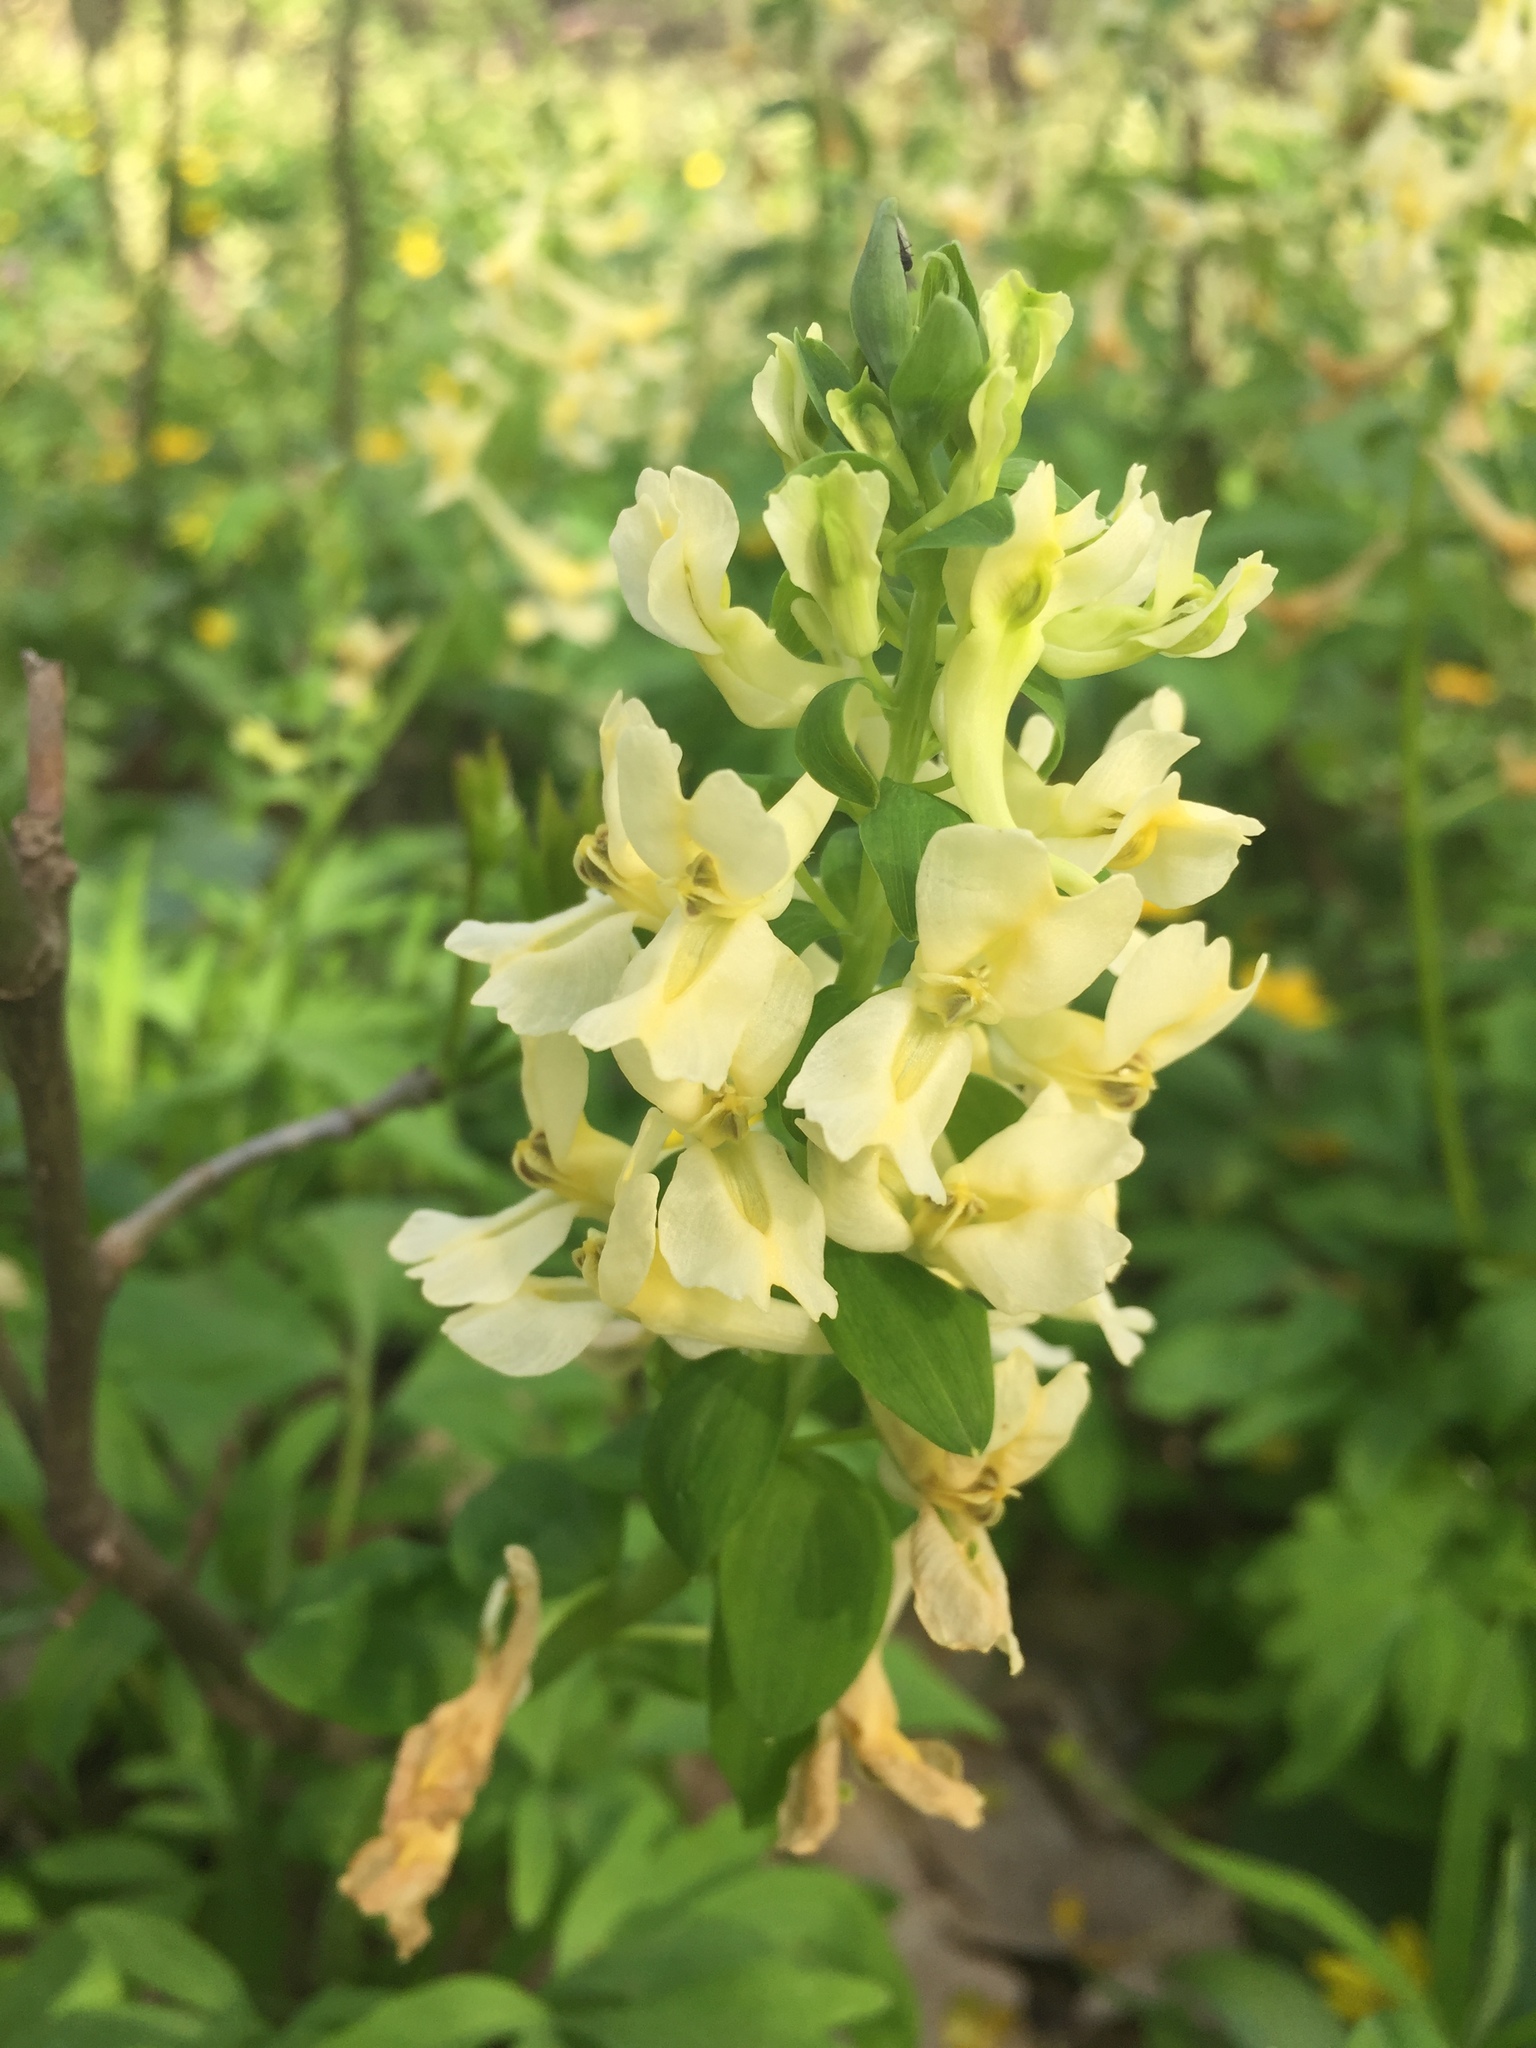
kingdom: Plantae
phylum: Tracheophyta
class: Magnoliopsida
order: Ranunculales
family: Papaveraceae
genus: Corydalis
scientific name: Corydalis cava
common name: Hollowroot
